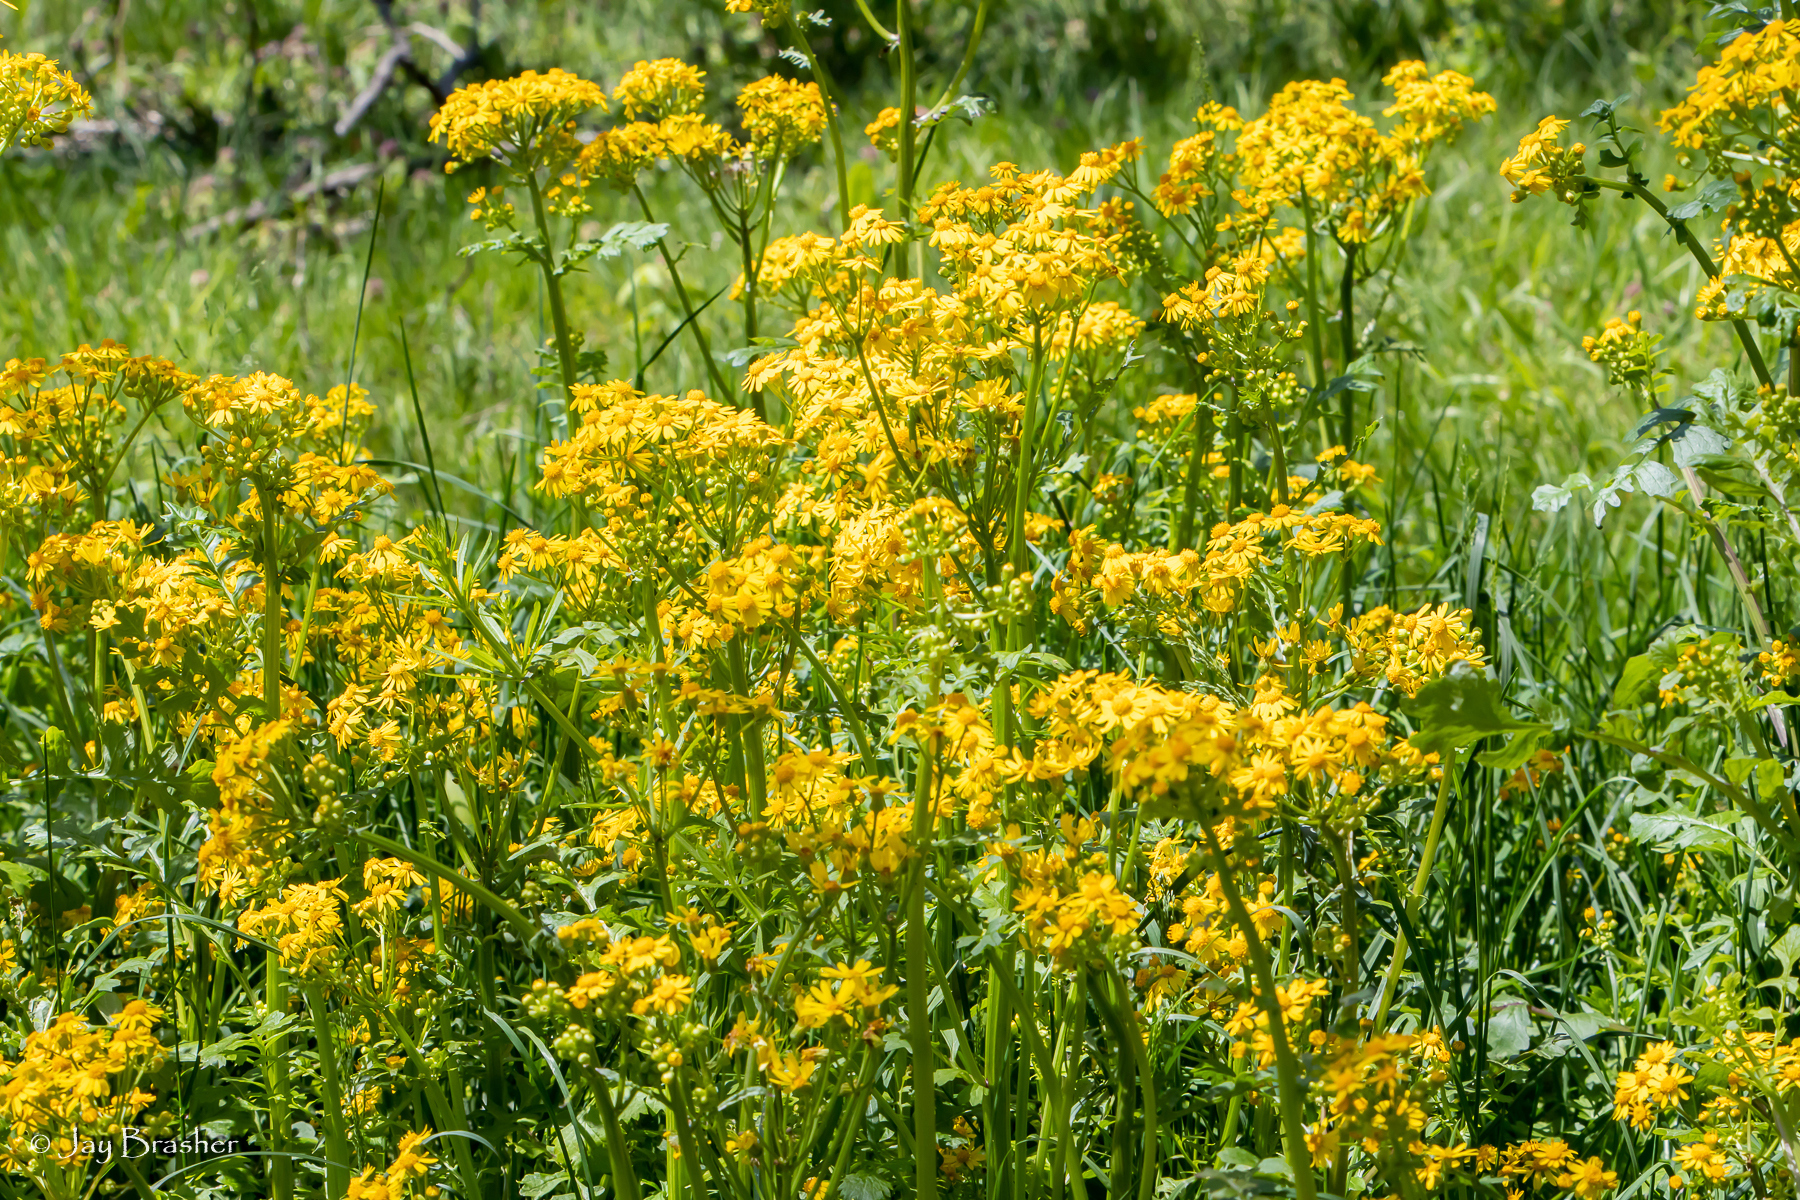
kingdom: Plantae
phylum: Tracheophyta
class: Magnoliopsida
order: Asterales
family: Asteraceae
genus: Packera
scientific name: Packera glabella
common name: Butterweed
